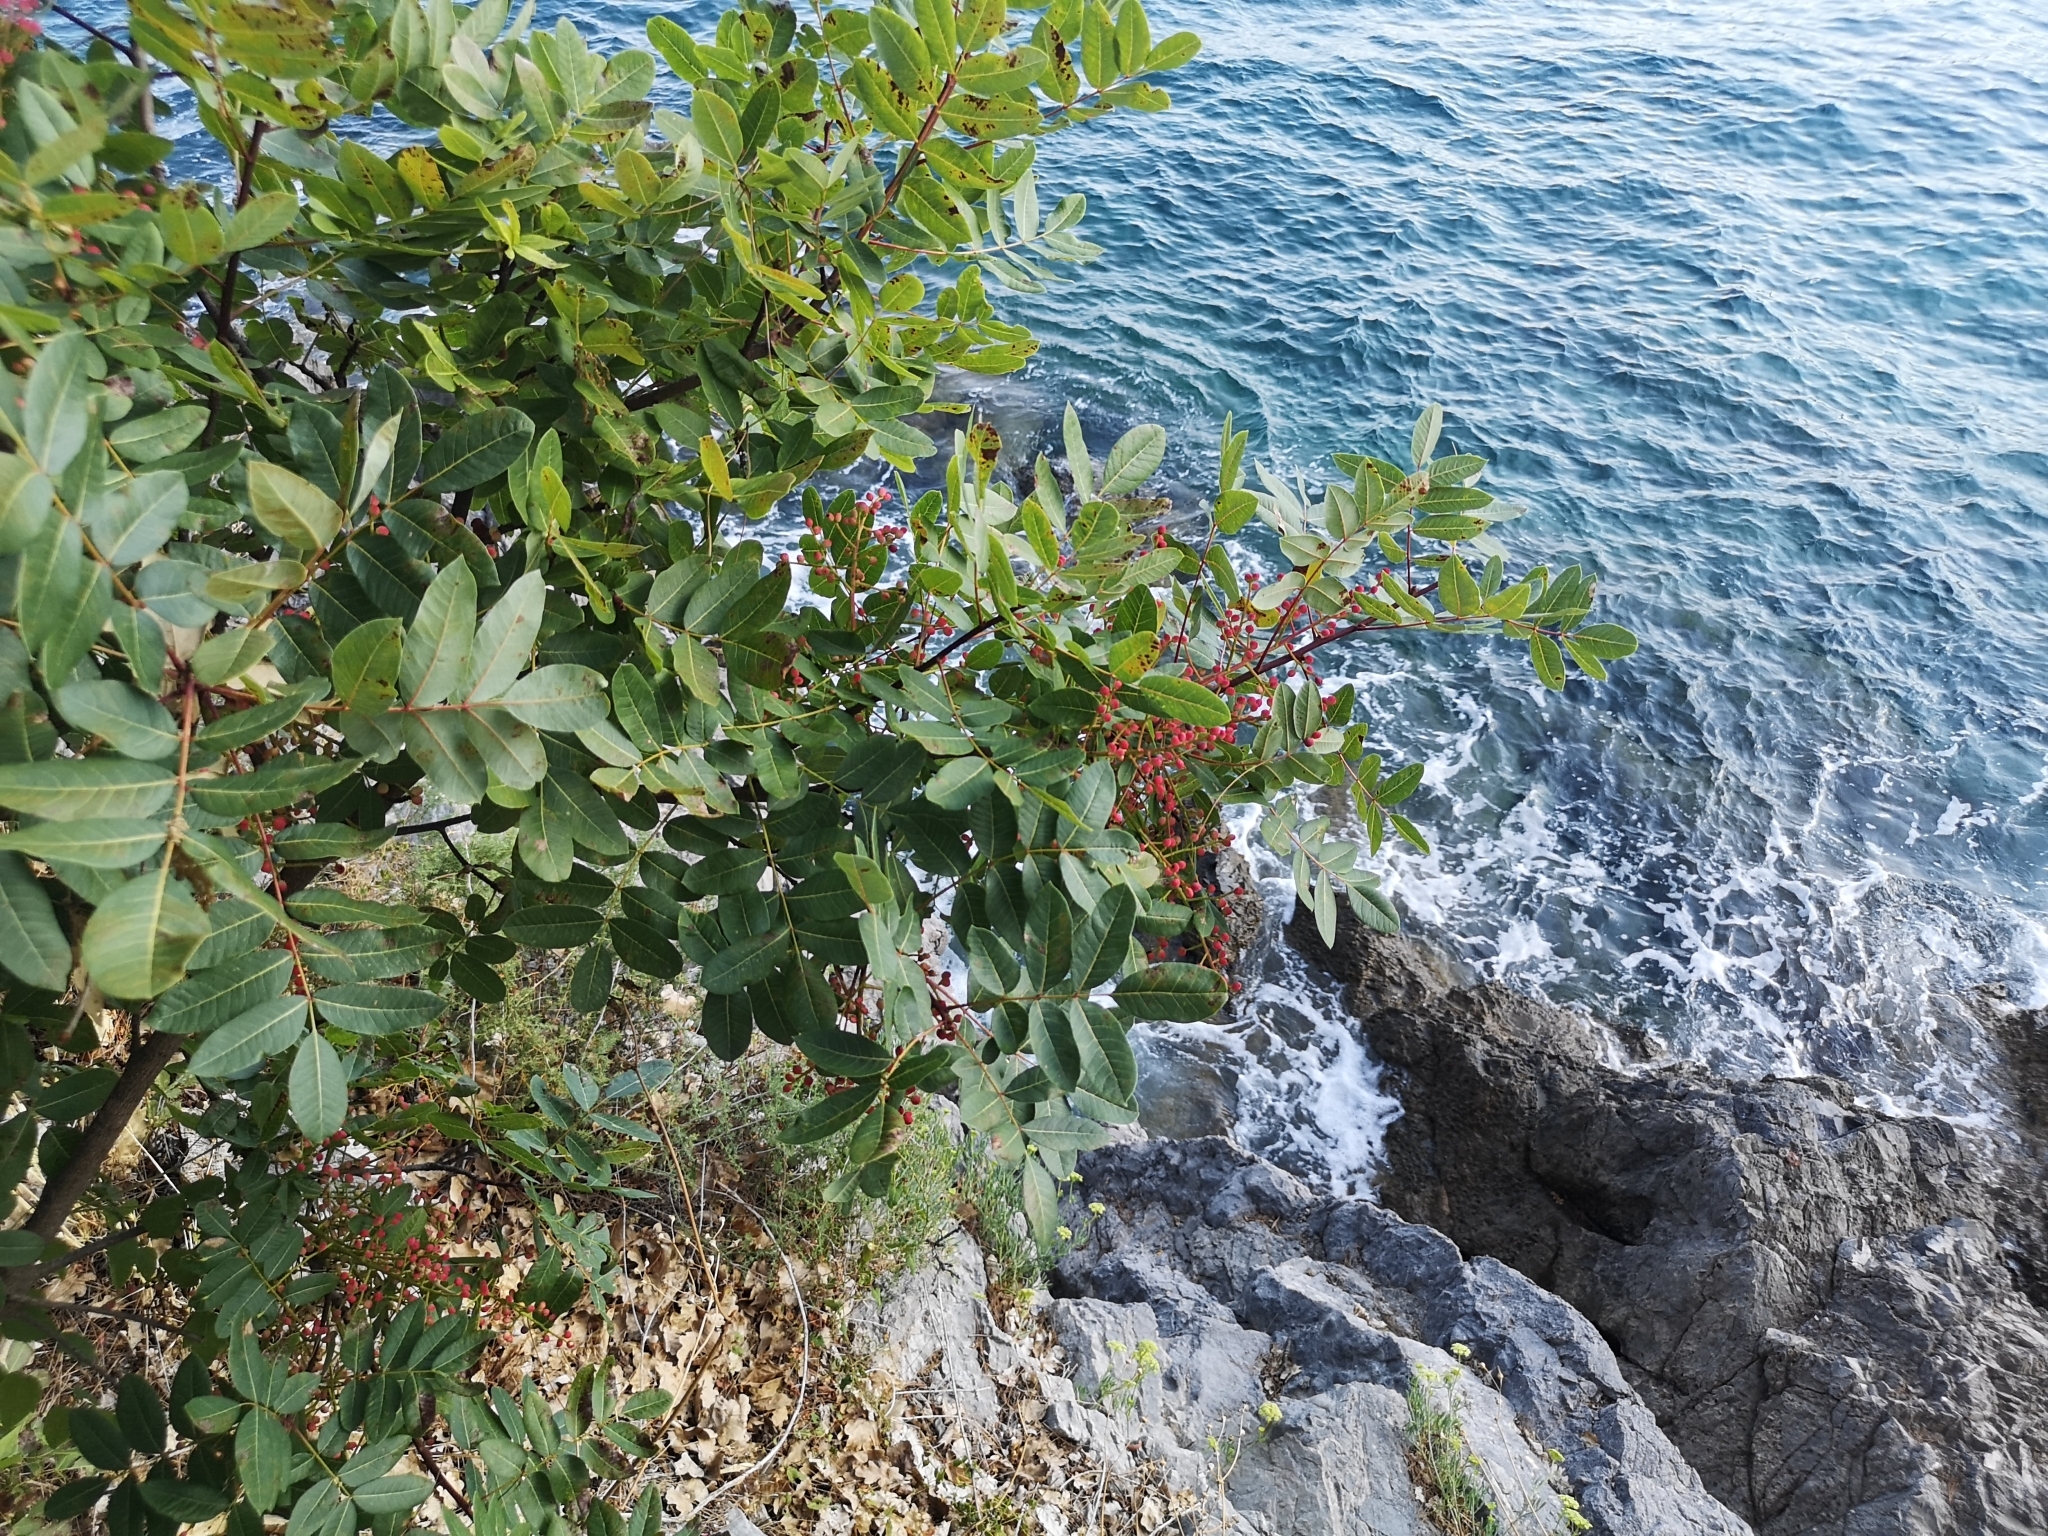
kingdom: Plantae
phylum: Tracheophyta
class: Magnoliopsida
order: Sapindales
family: Anacardiaceae
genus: Pistacia
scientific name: Pistacia terebinthus
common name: Terebinth
